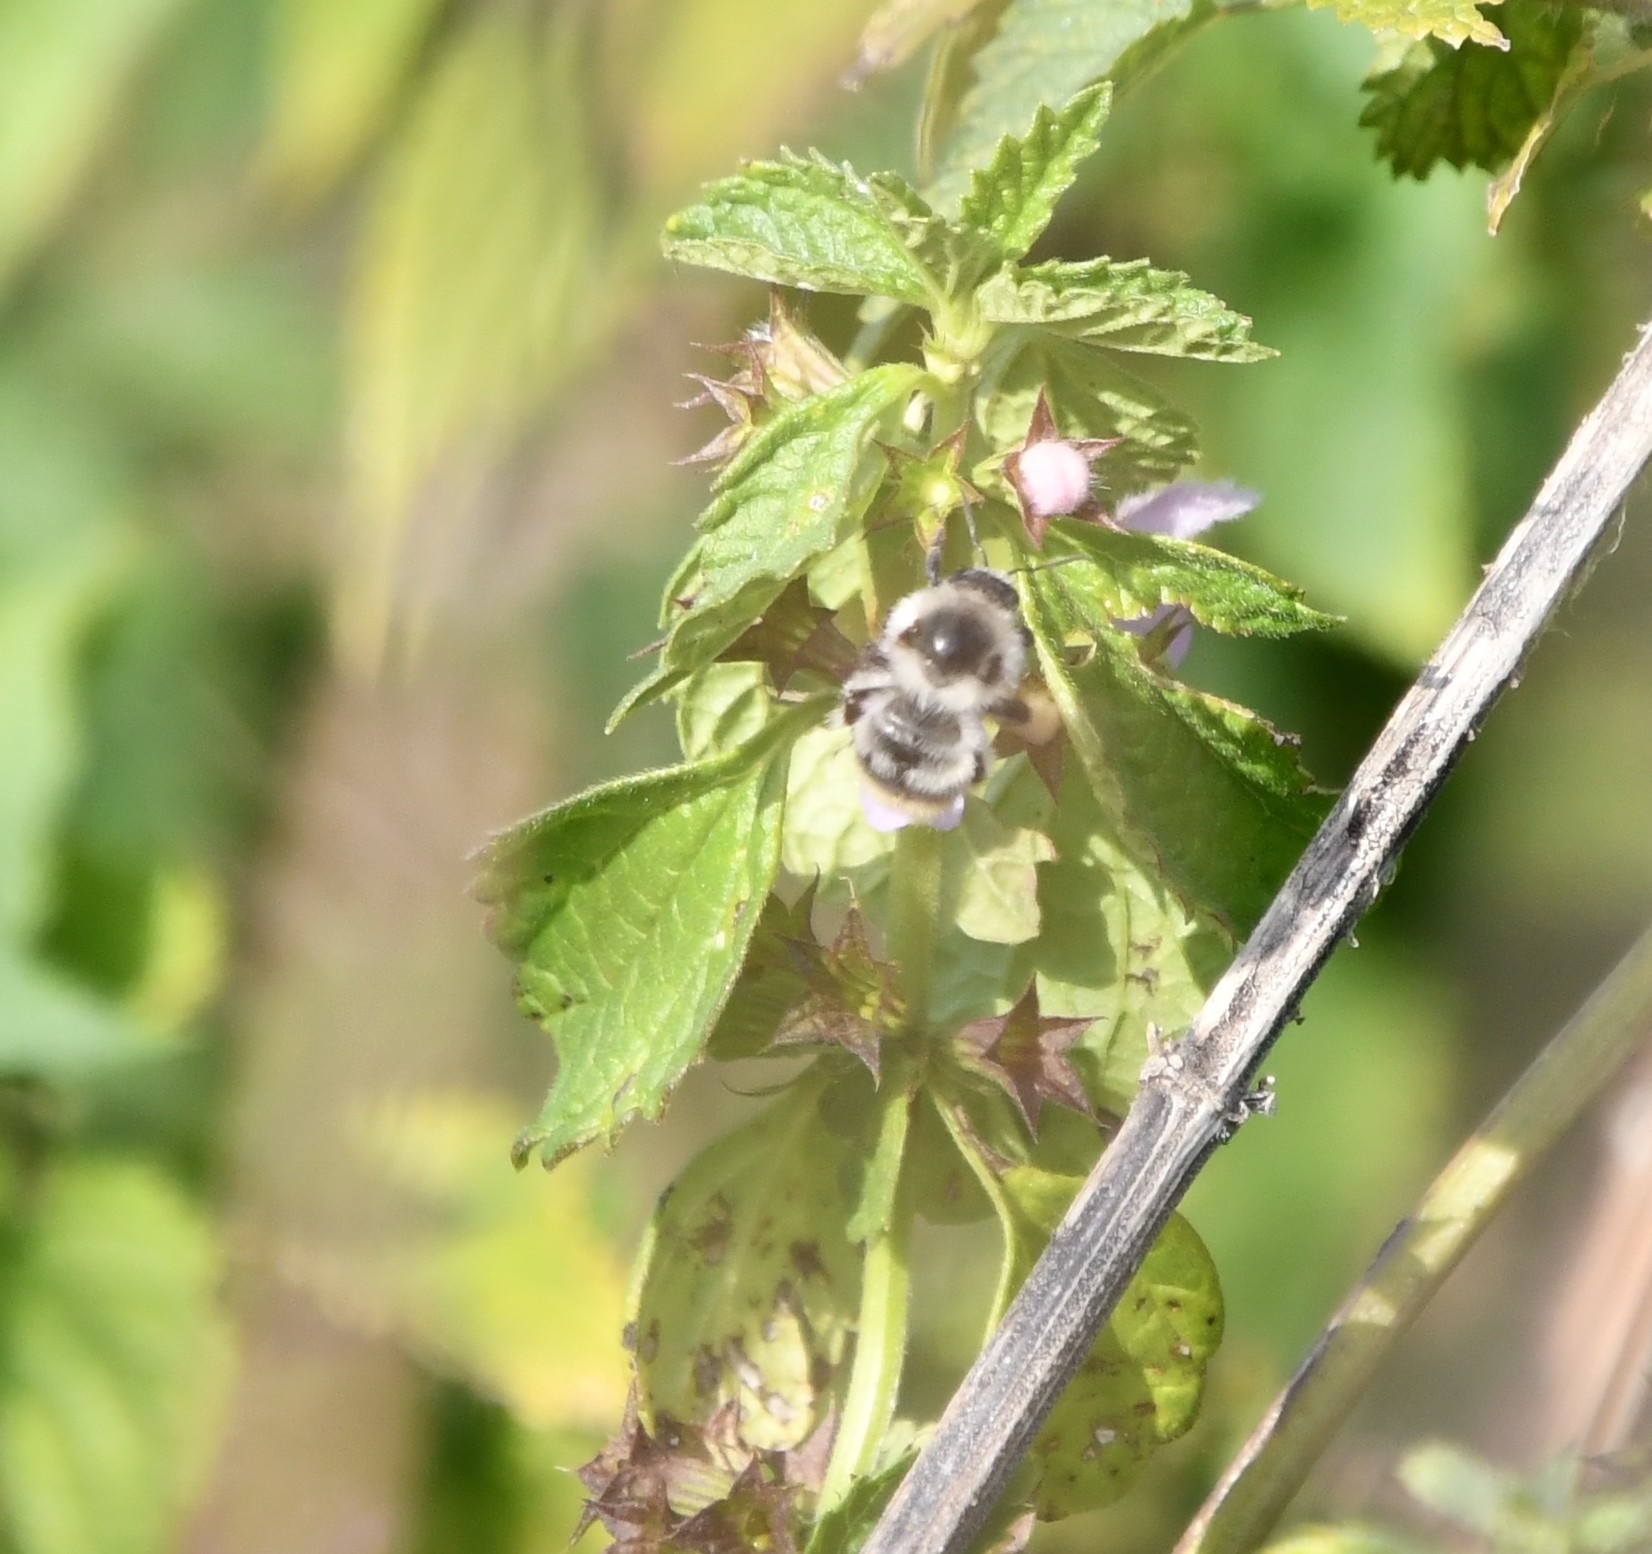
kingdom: Animalia
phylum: Arthropoda
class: Insecta
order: Hymenoptera
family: Apidae
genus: Bombus
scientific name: Bombus sylvarum
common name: Shrill carder bee
